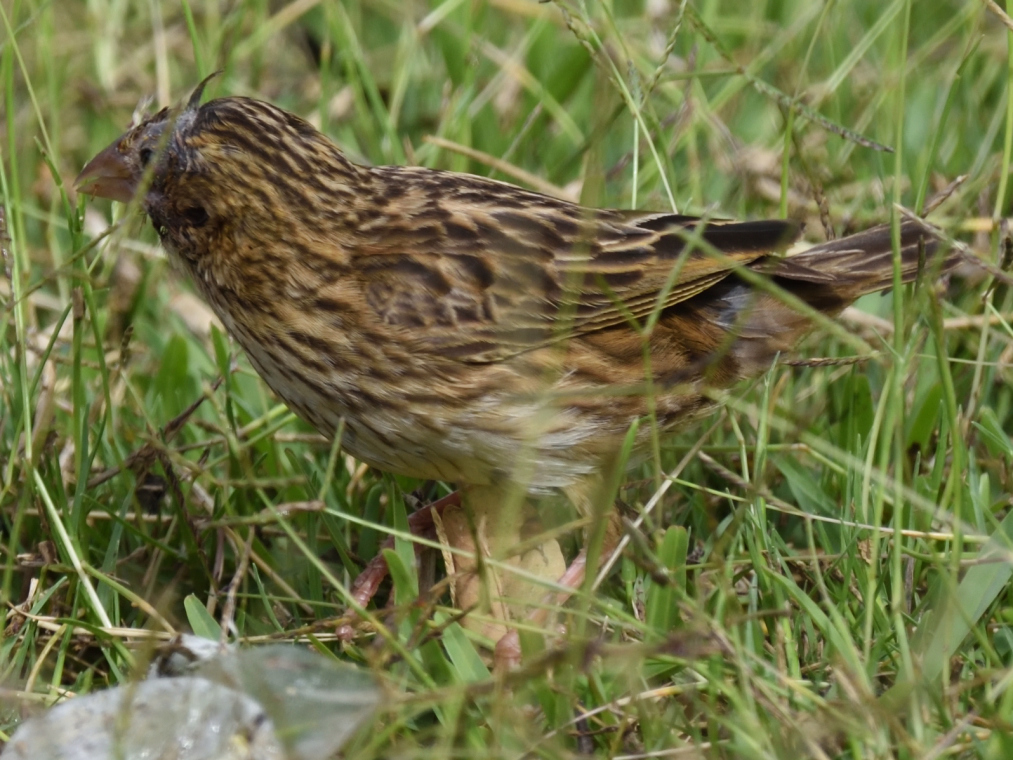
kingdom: Animalia
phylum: Chordata
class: Aves
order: Passeriformes
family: Ploceidae
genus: Euplectes
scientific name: Euplectes orix
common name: Southern red bishop
